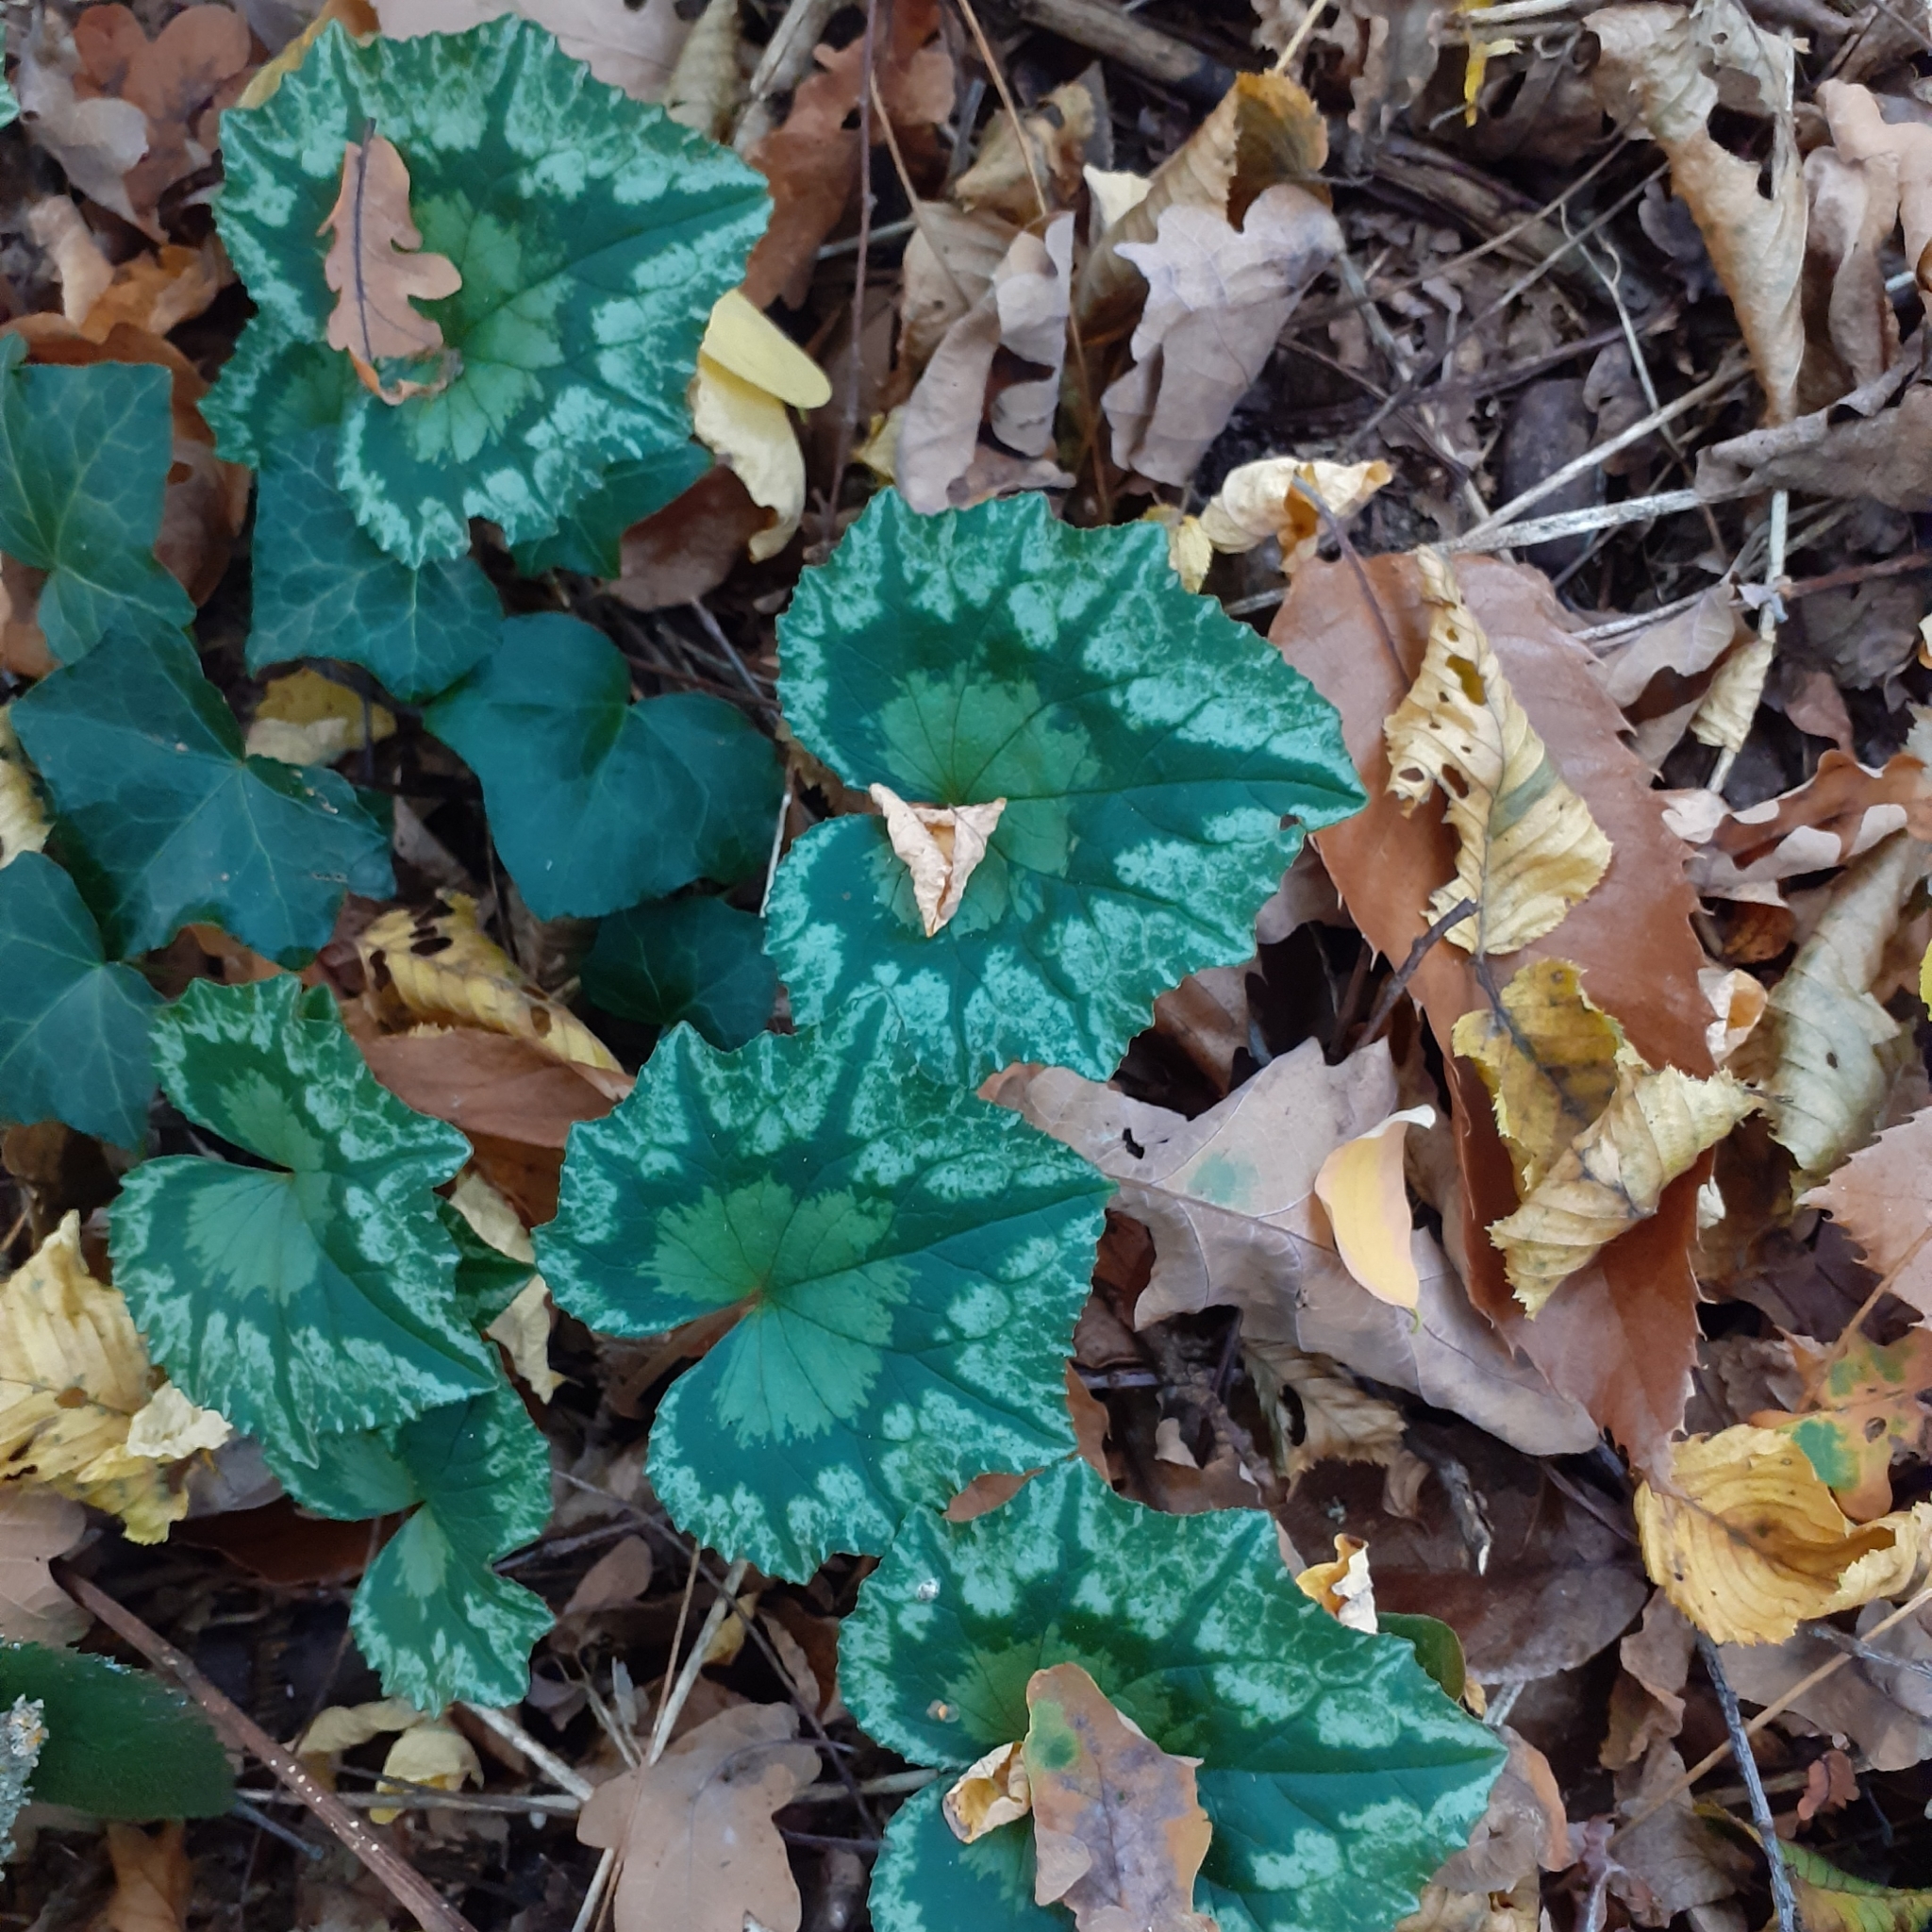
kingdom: Plantae
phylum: Tracheophyta
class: Magnoliopsida
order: Ericales
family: Primulaceae
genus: Cyclamen
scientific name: Cyclamen hederifolium
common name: Sowbread
